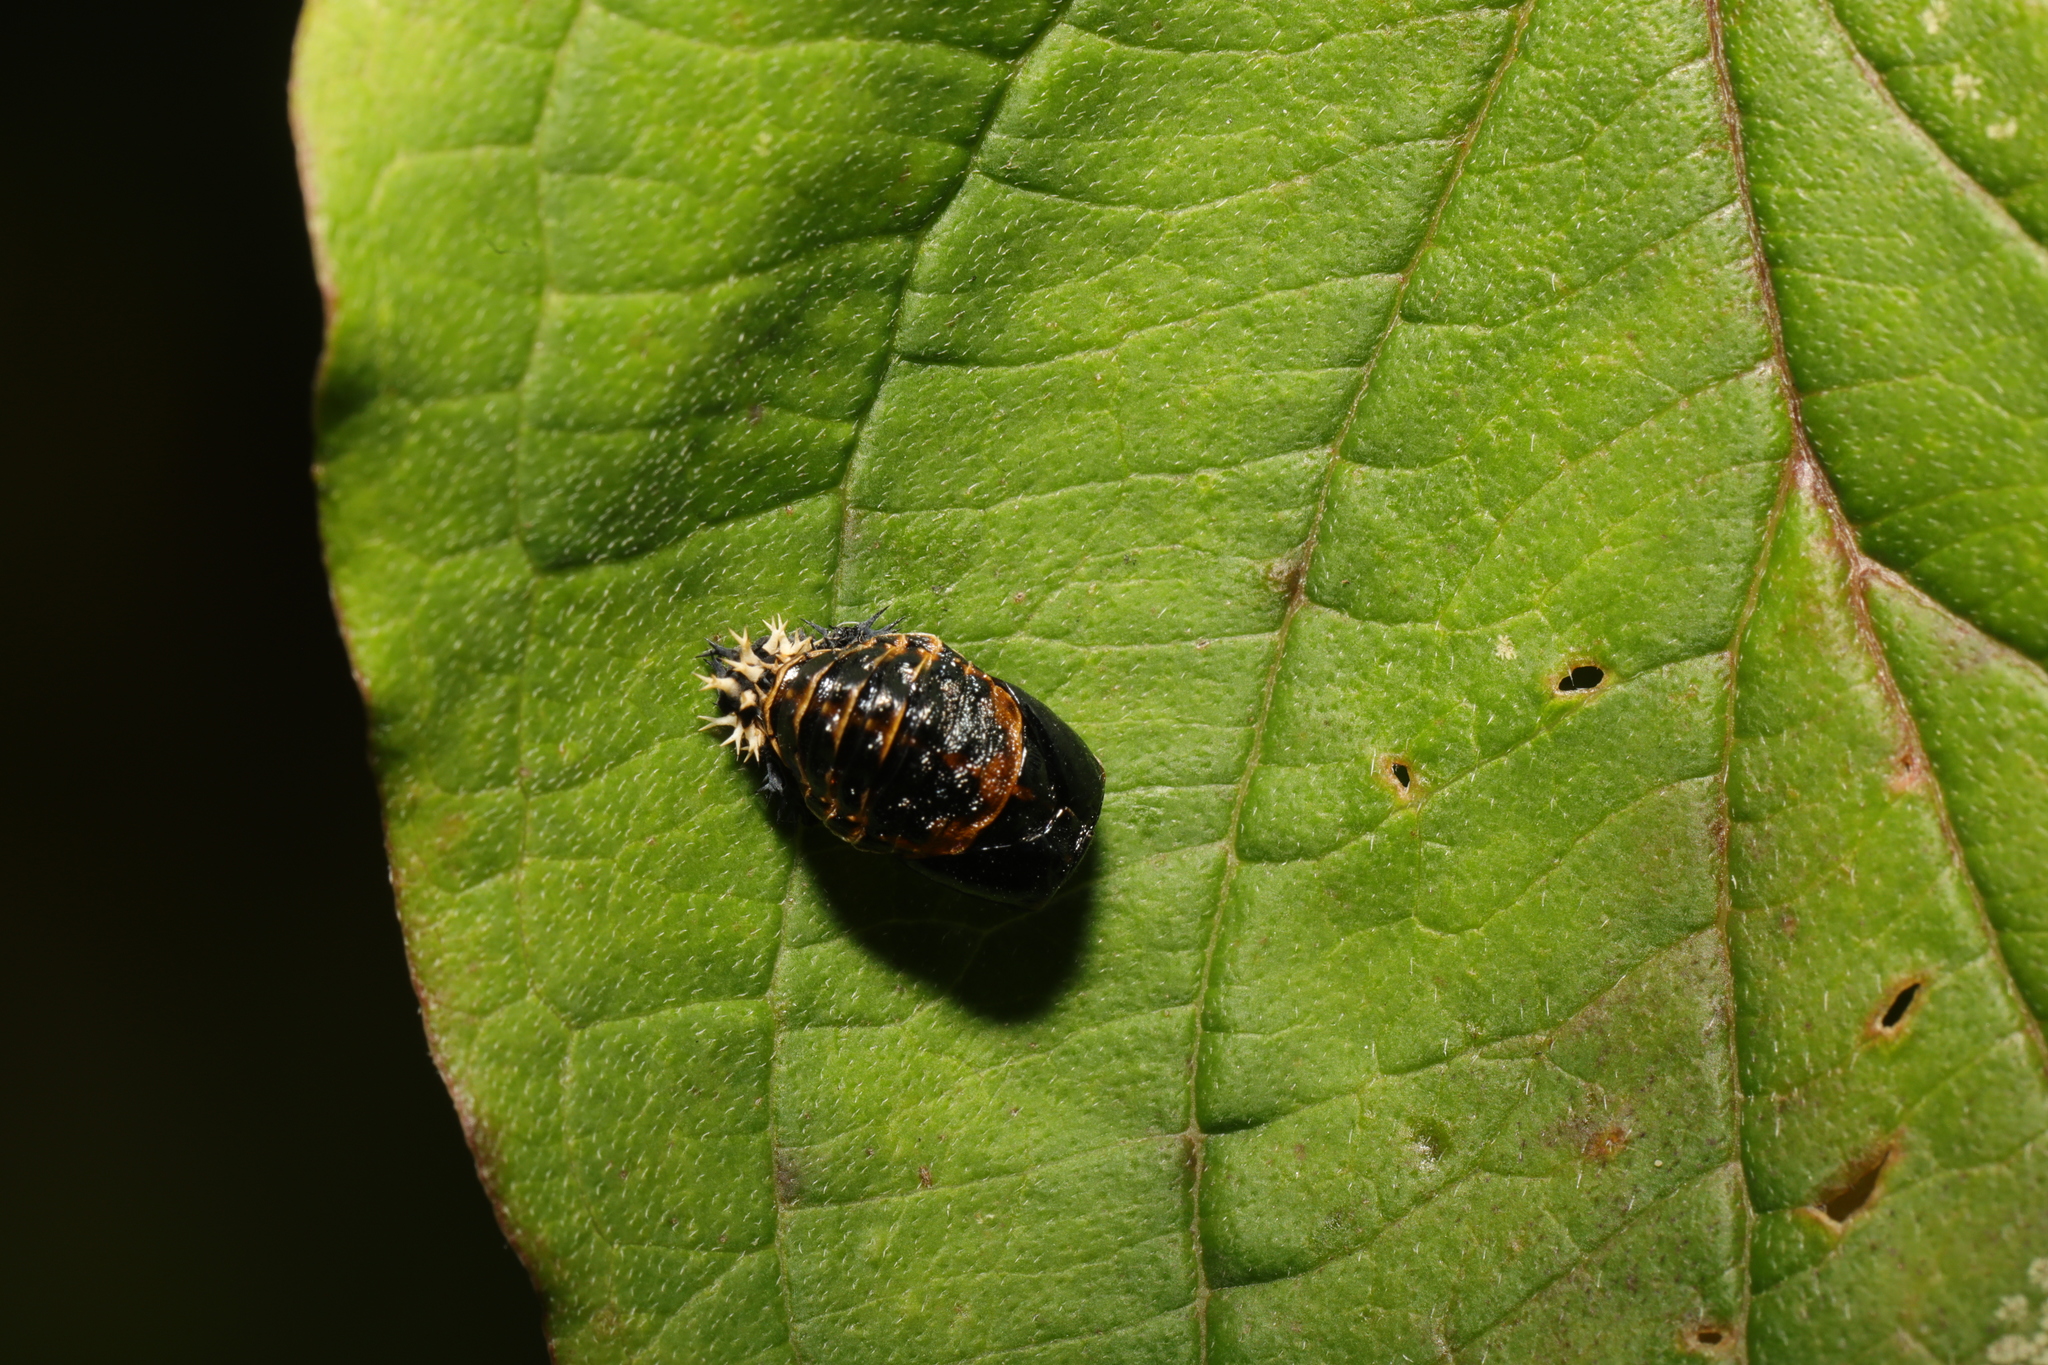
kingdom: Animalia
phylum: Arthropoda
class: Insecta
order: Coleoptera
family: Coccinellidae
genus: Harmonia
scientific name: Harmonia axyridis
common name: Harlequin ladybird
